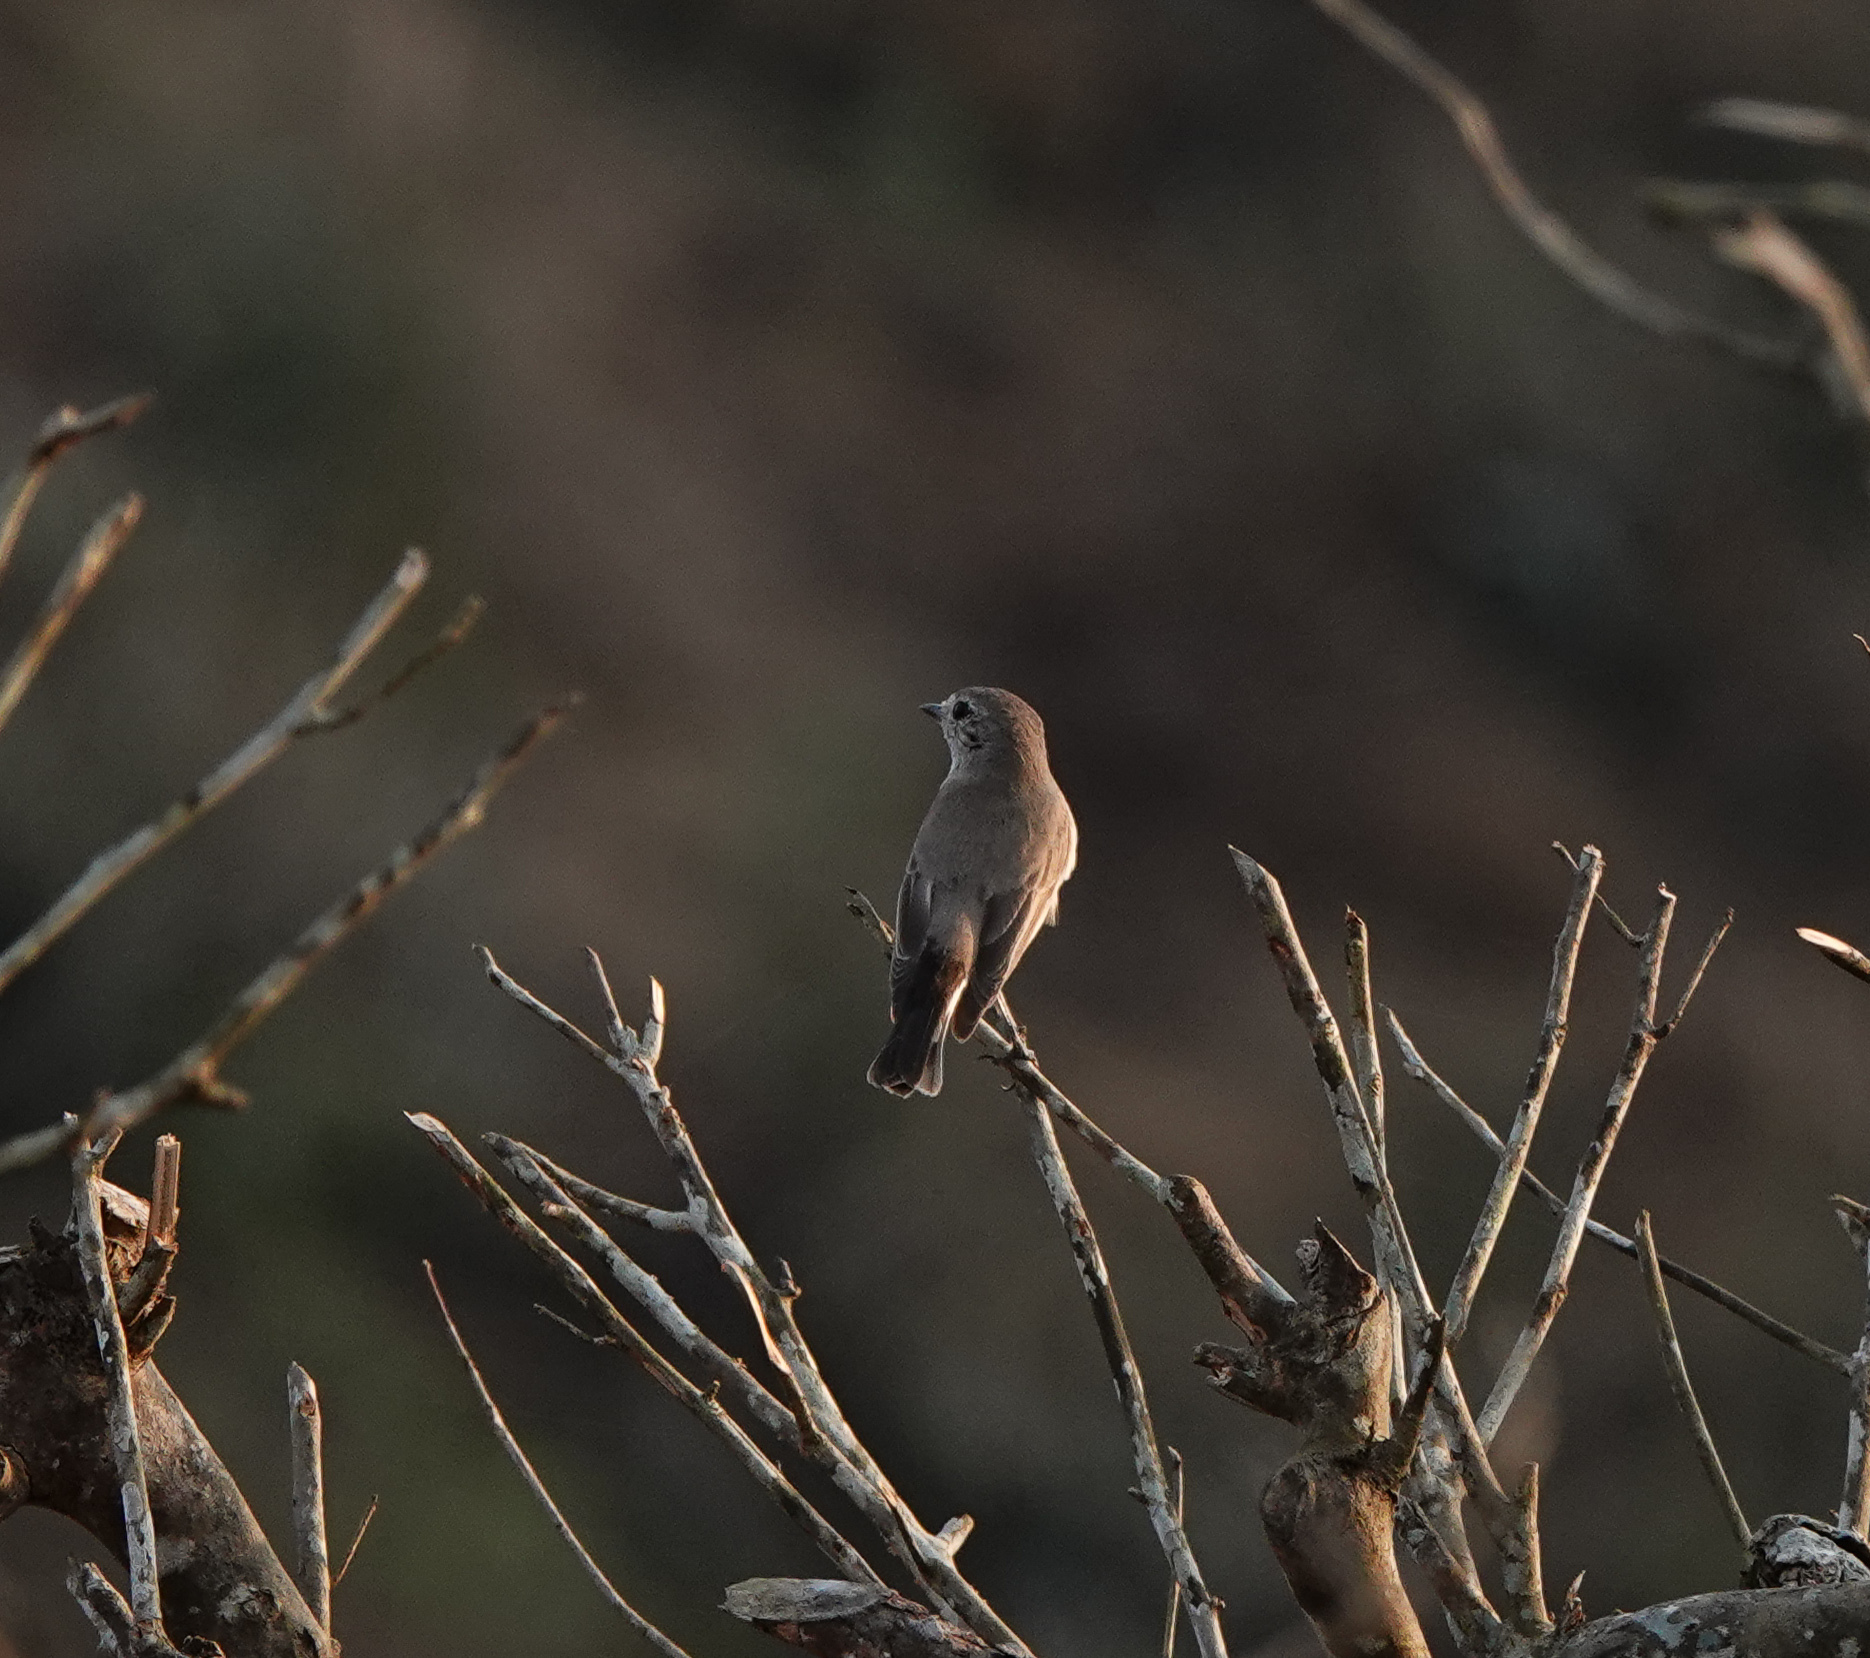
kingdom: Animalia
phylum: Chordata
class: Aves
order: Passeriformes
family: Muscicapidae
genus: Ficedula
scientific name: Ficedula albicilla
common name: Taiga flycatcher
